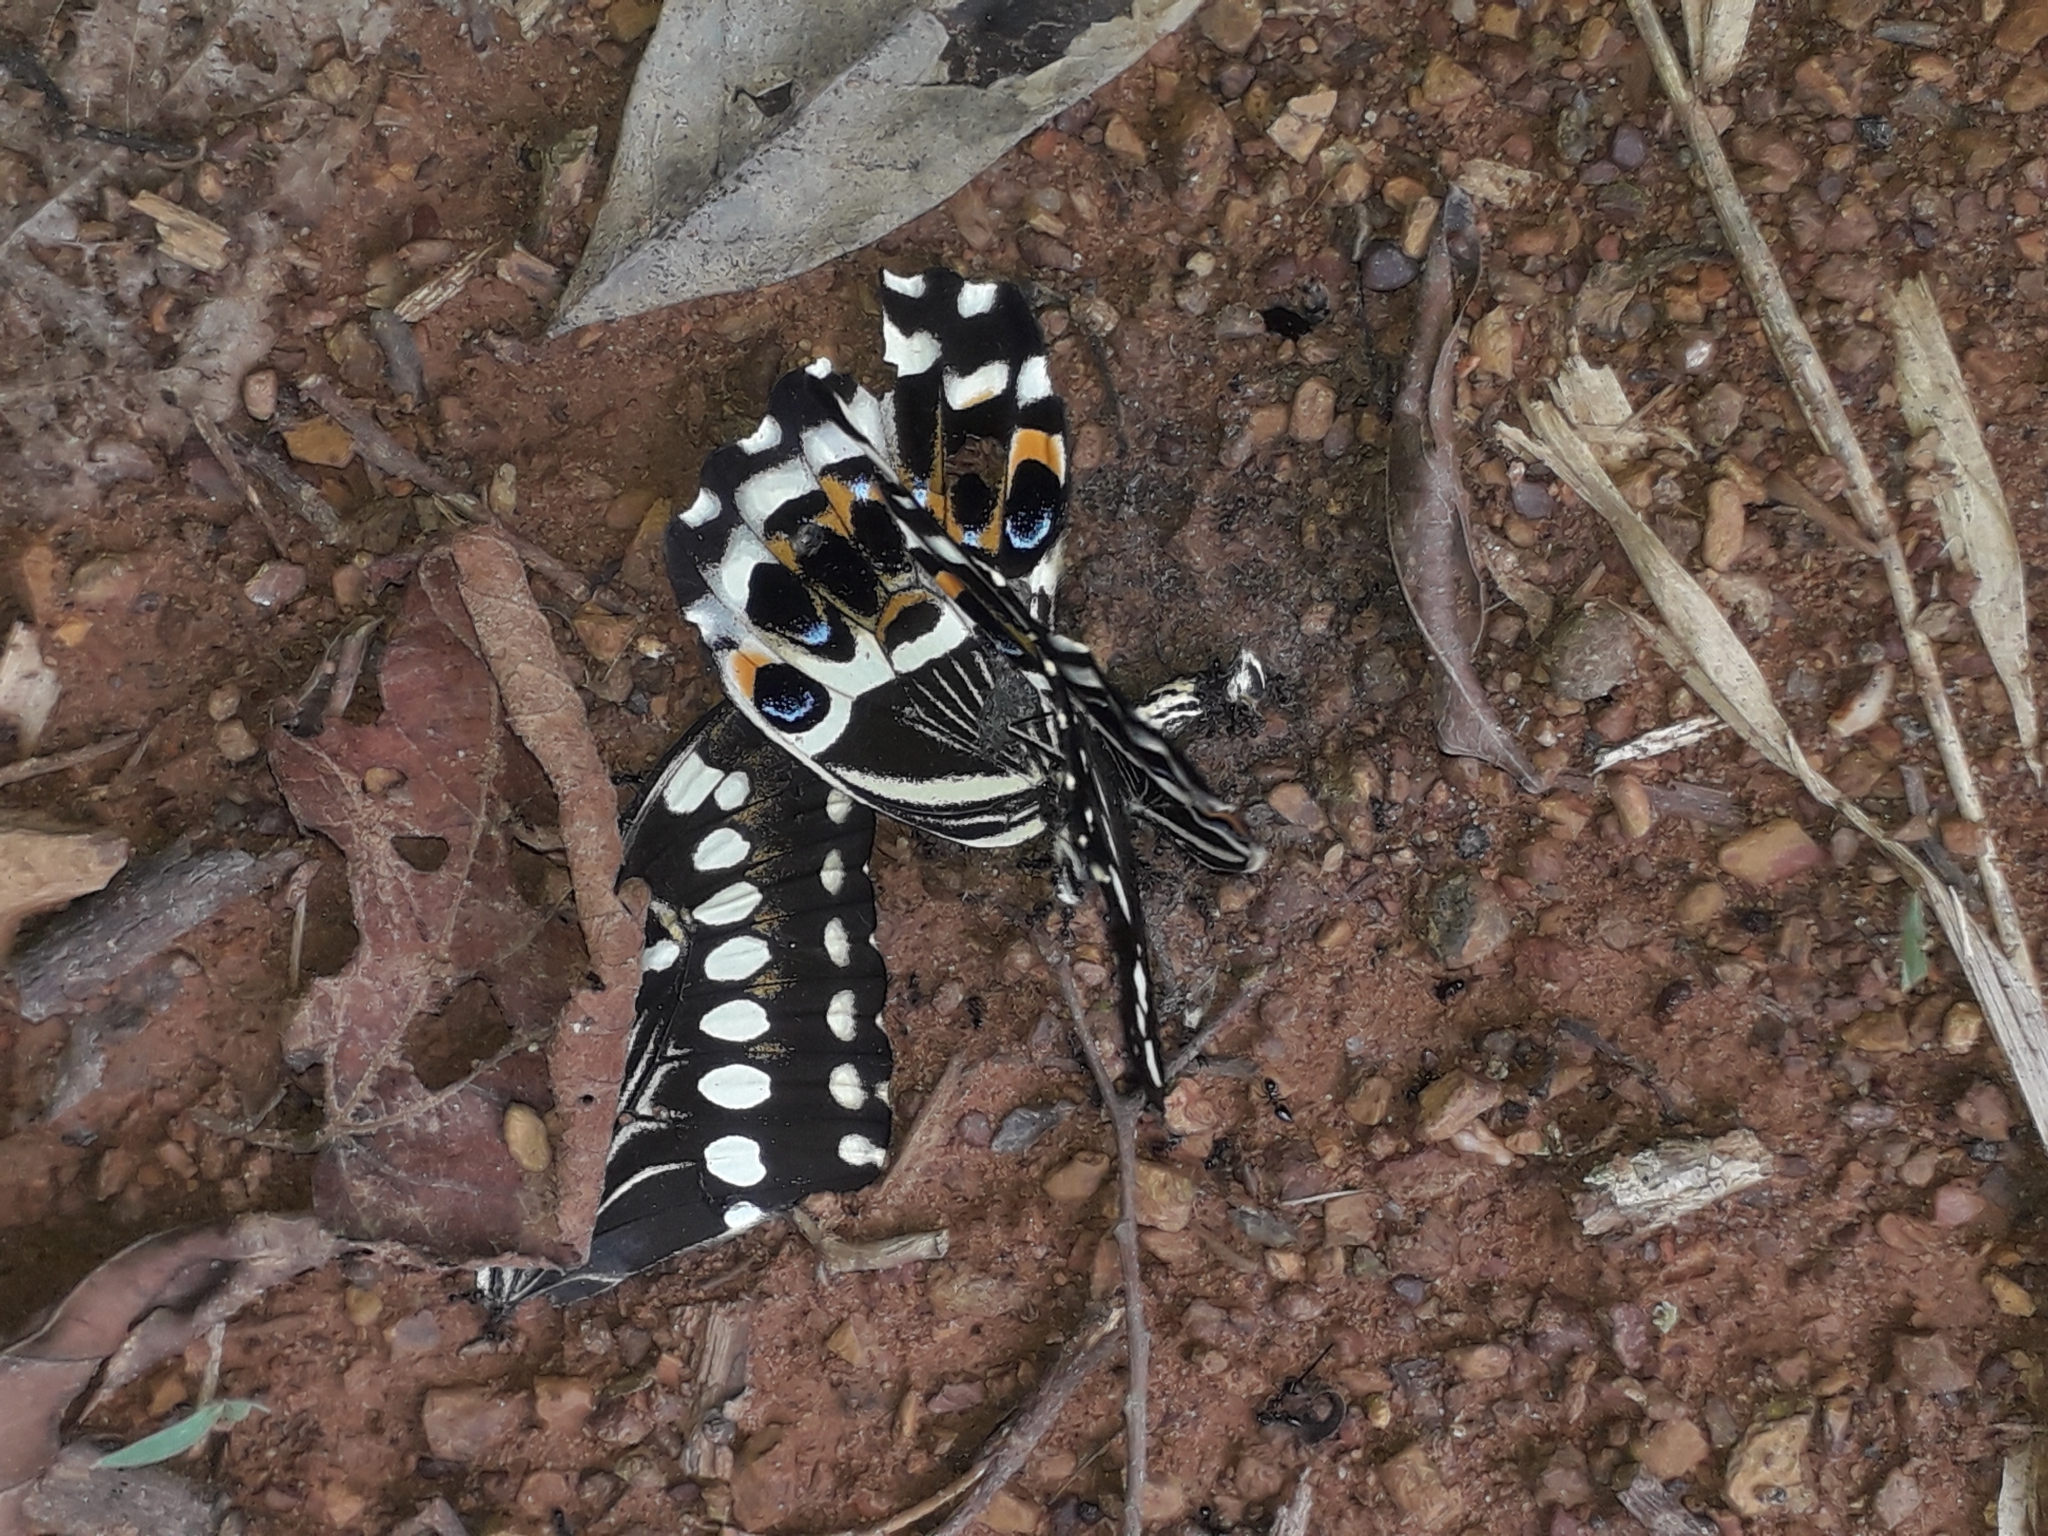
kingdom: Animalia
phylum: Arthropoda
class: Insecta
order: Lepidoptera
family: Papilionidae
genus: Papilio
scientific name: Papilio lormieri
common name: Central emperor swallowtail
